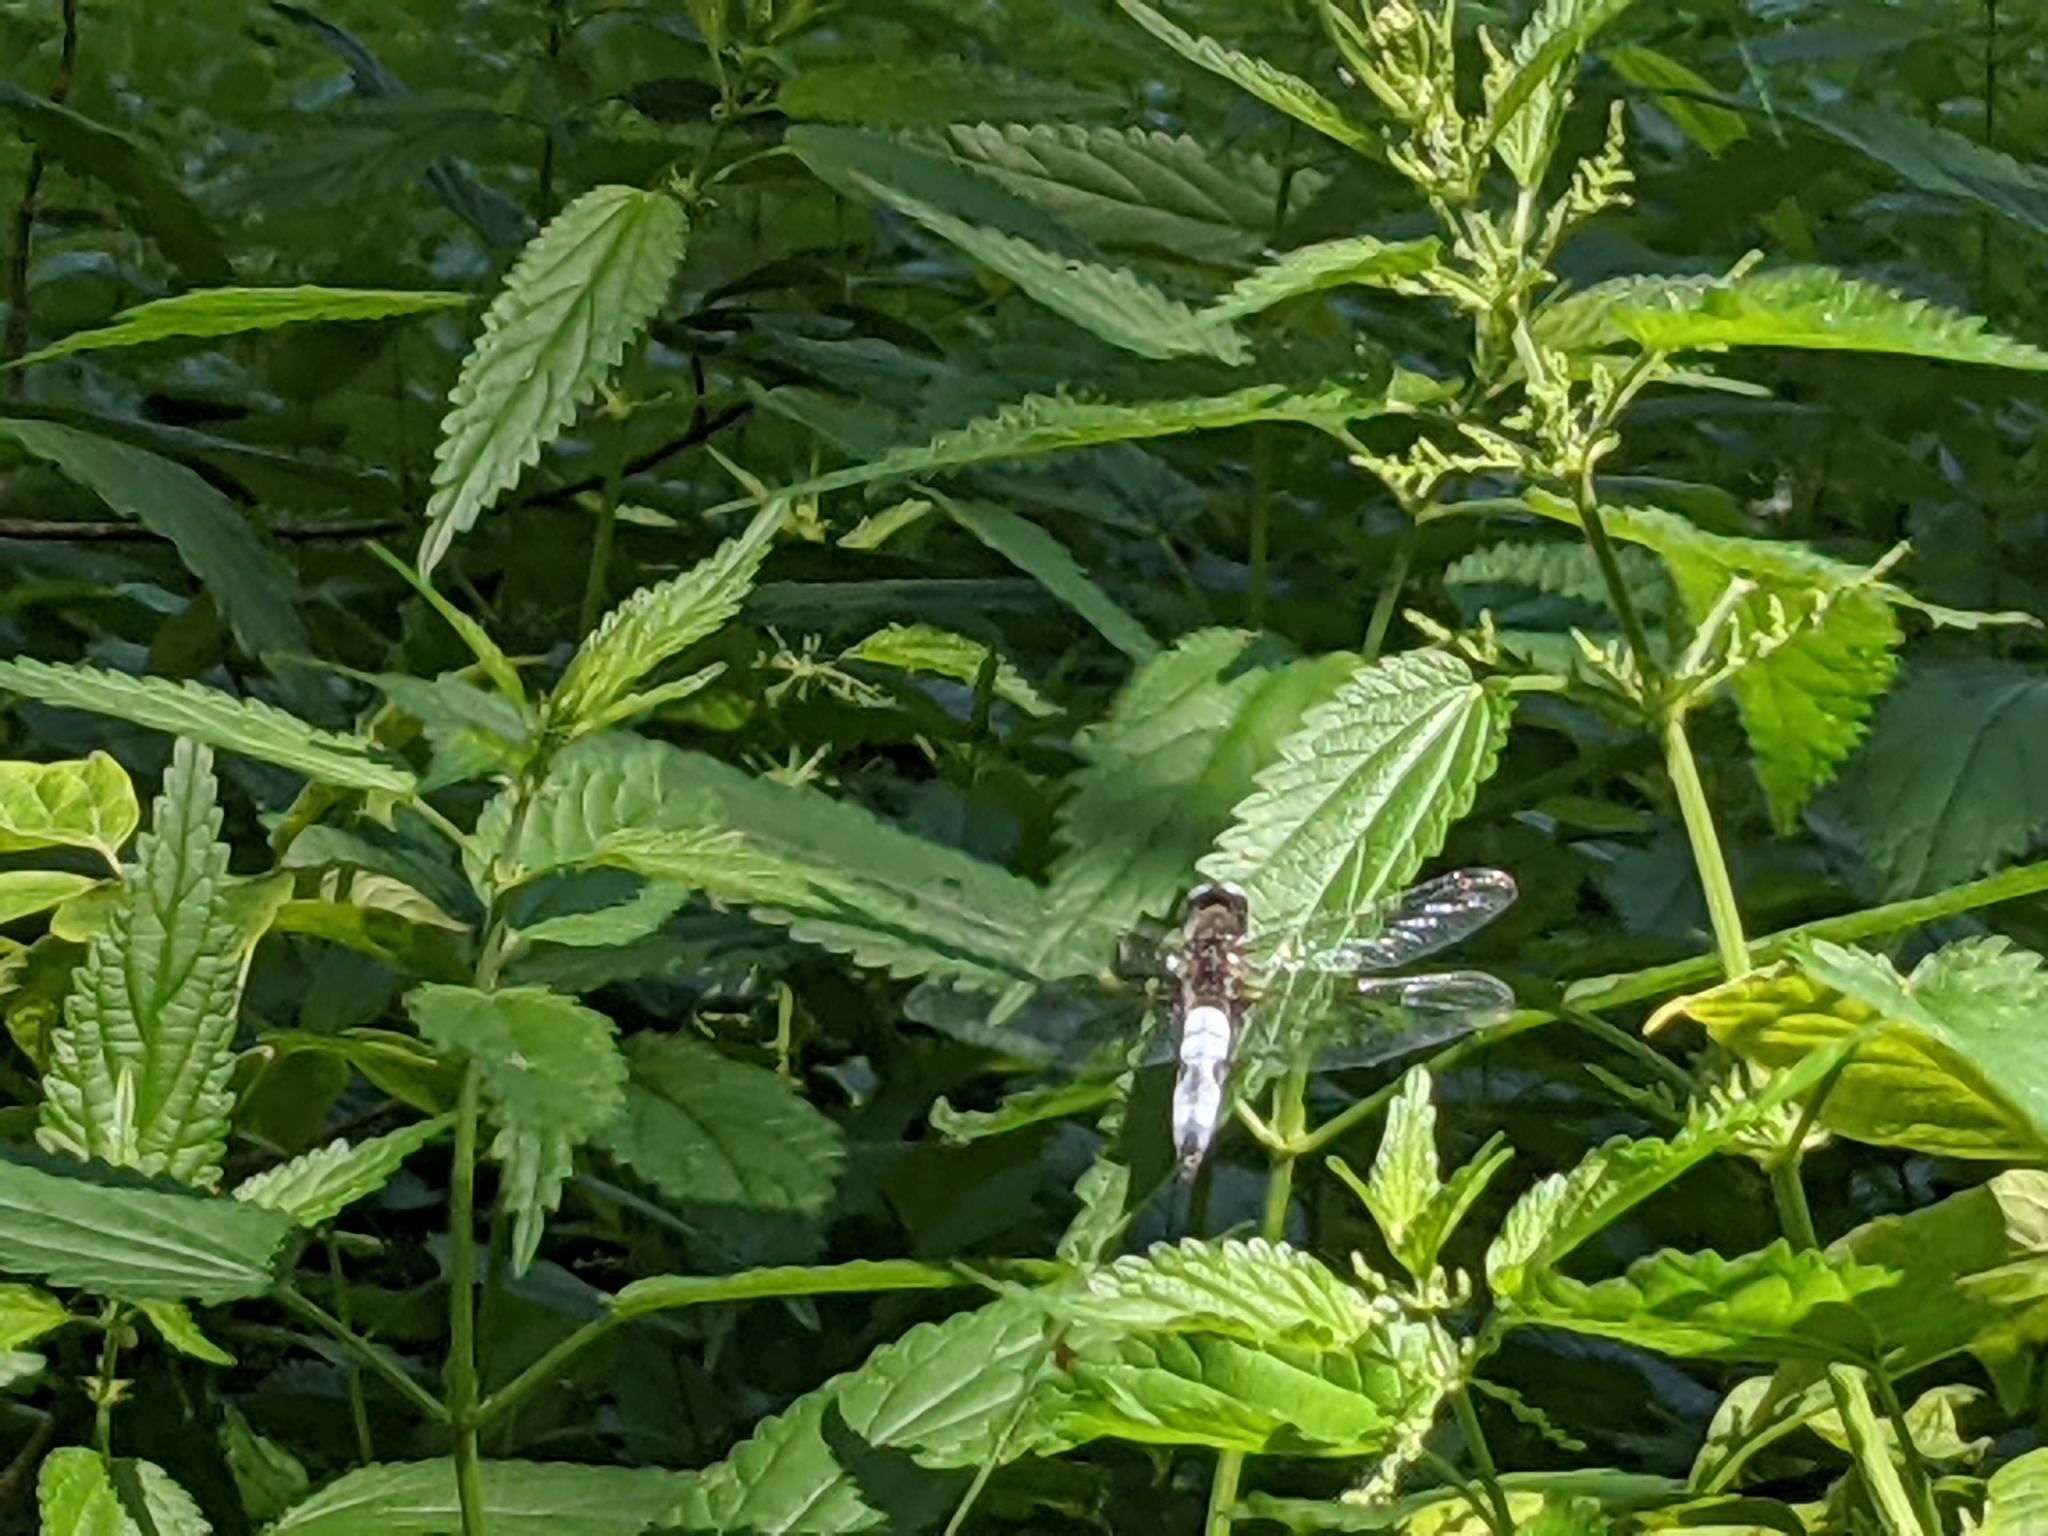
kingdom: Animalia
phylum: Arthropoda
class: Insecta
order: Odonata
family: Libellulidae
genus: Libellula
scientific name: Libellula fulva
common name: Blue chaser
